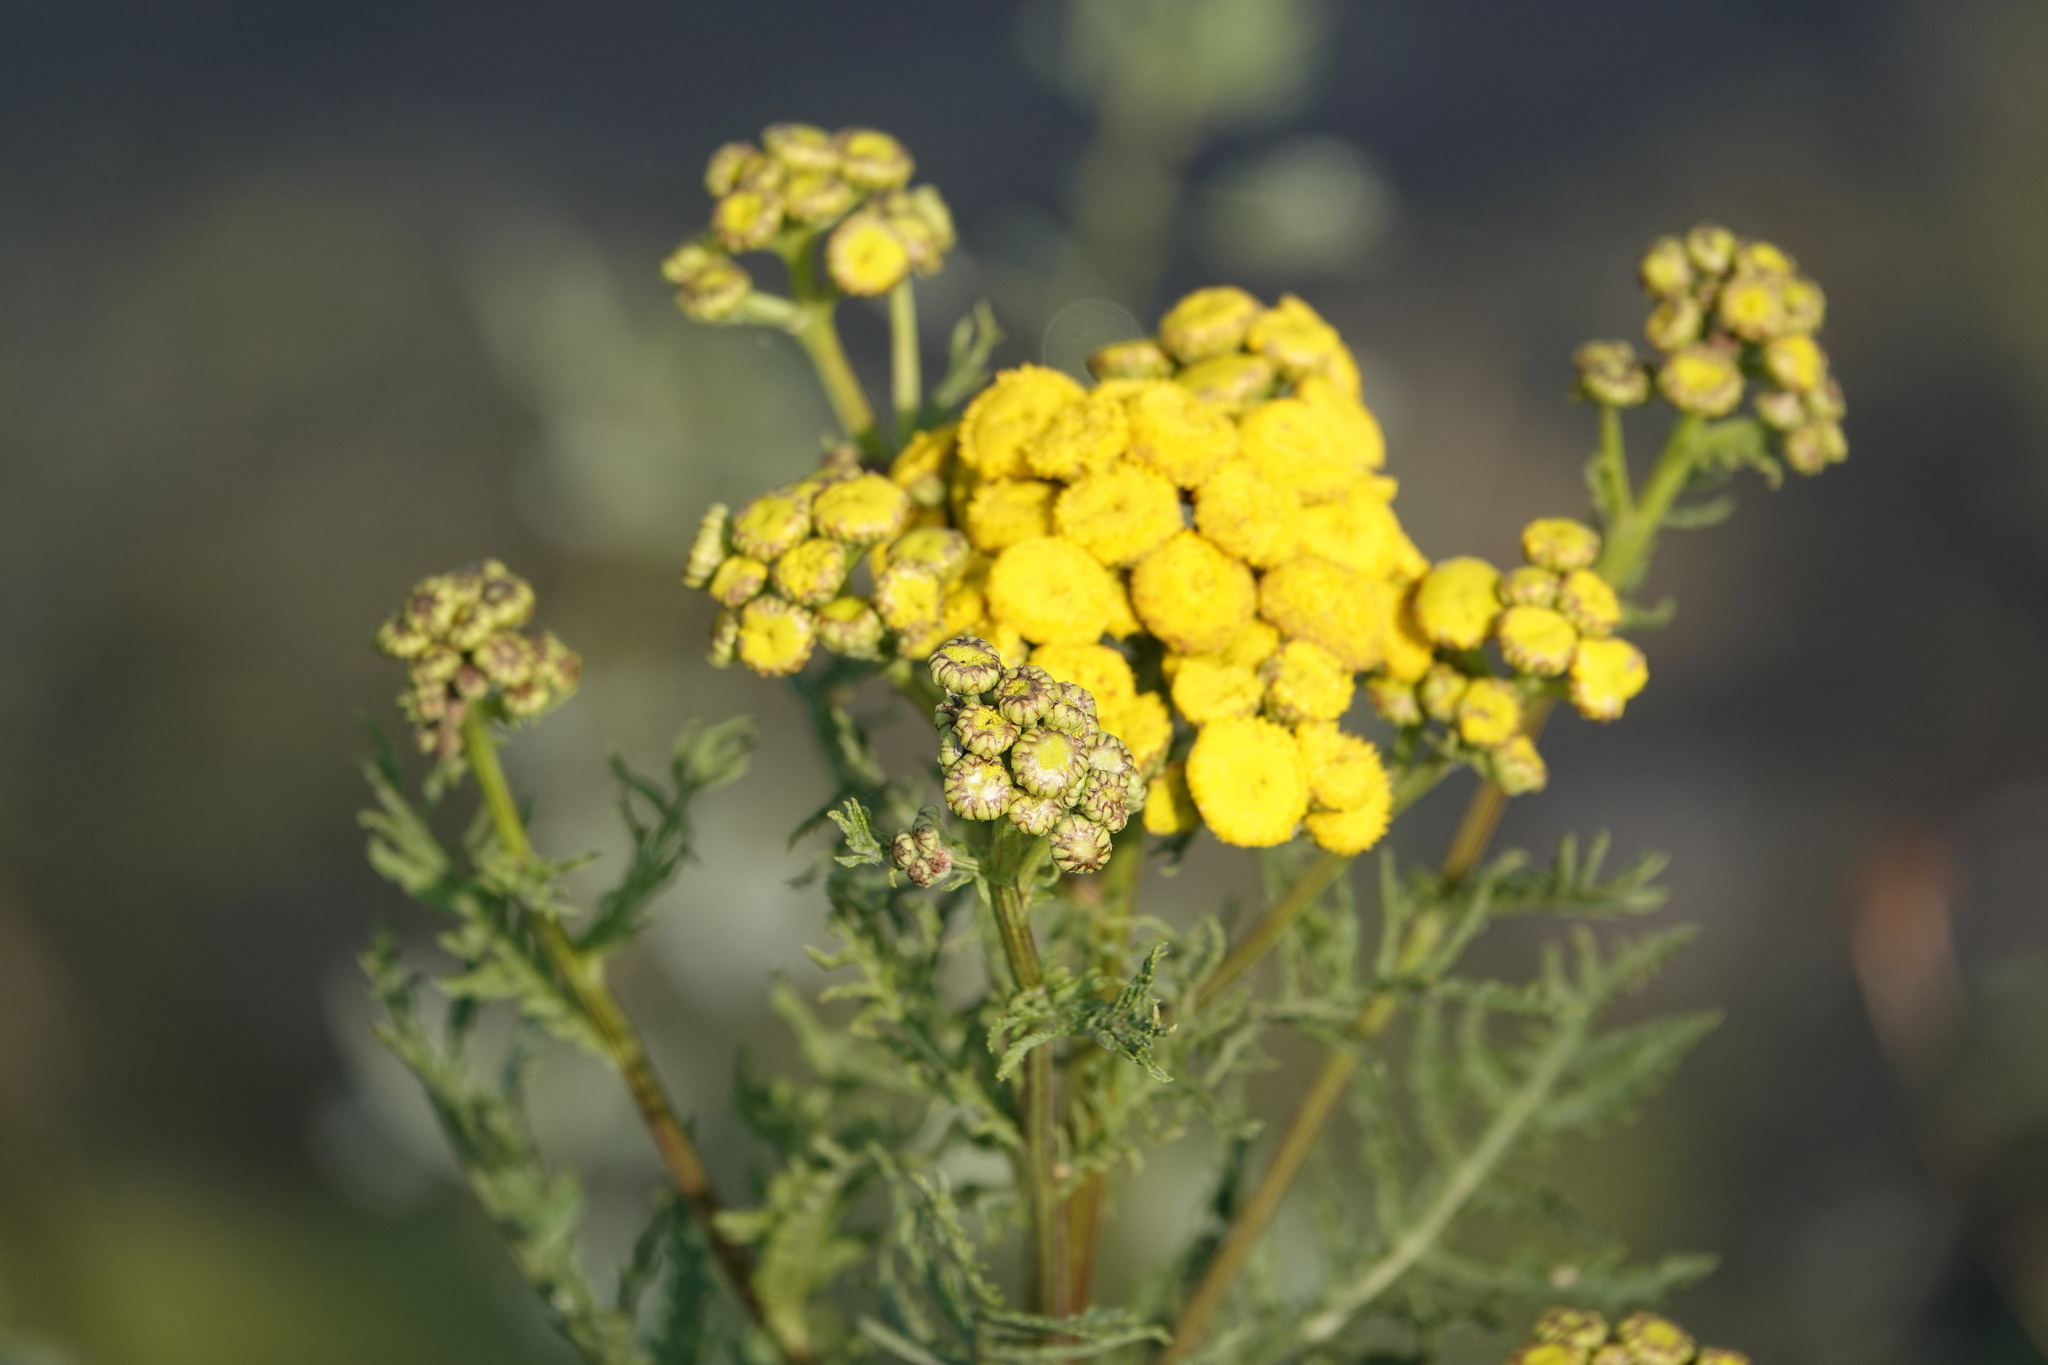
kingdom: Plantae
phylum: Tracheophyta
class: Magnoliopsida
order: Asterales
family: Asteraceae
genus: Tanacetum
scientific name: Tanacetum vulgare
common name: Common tansy
